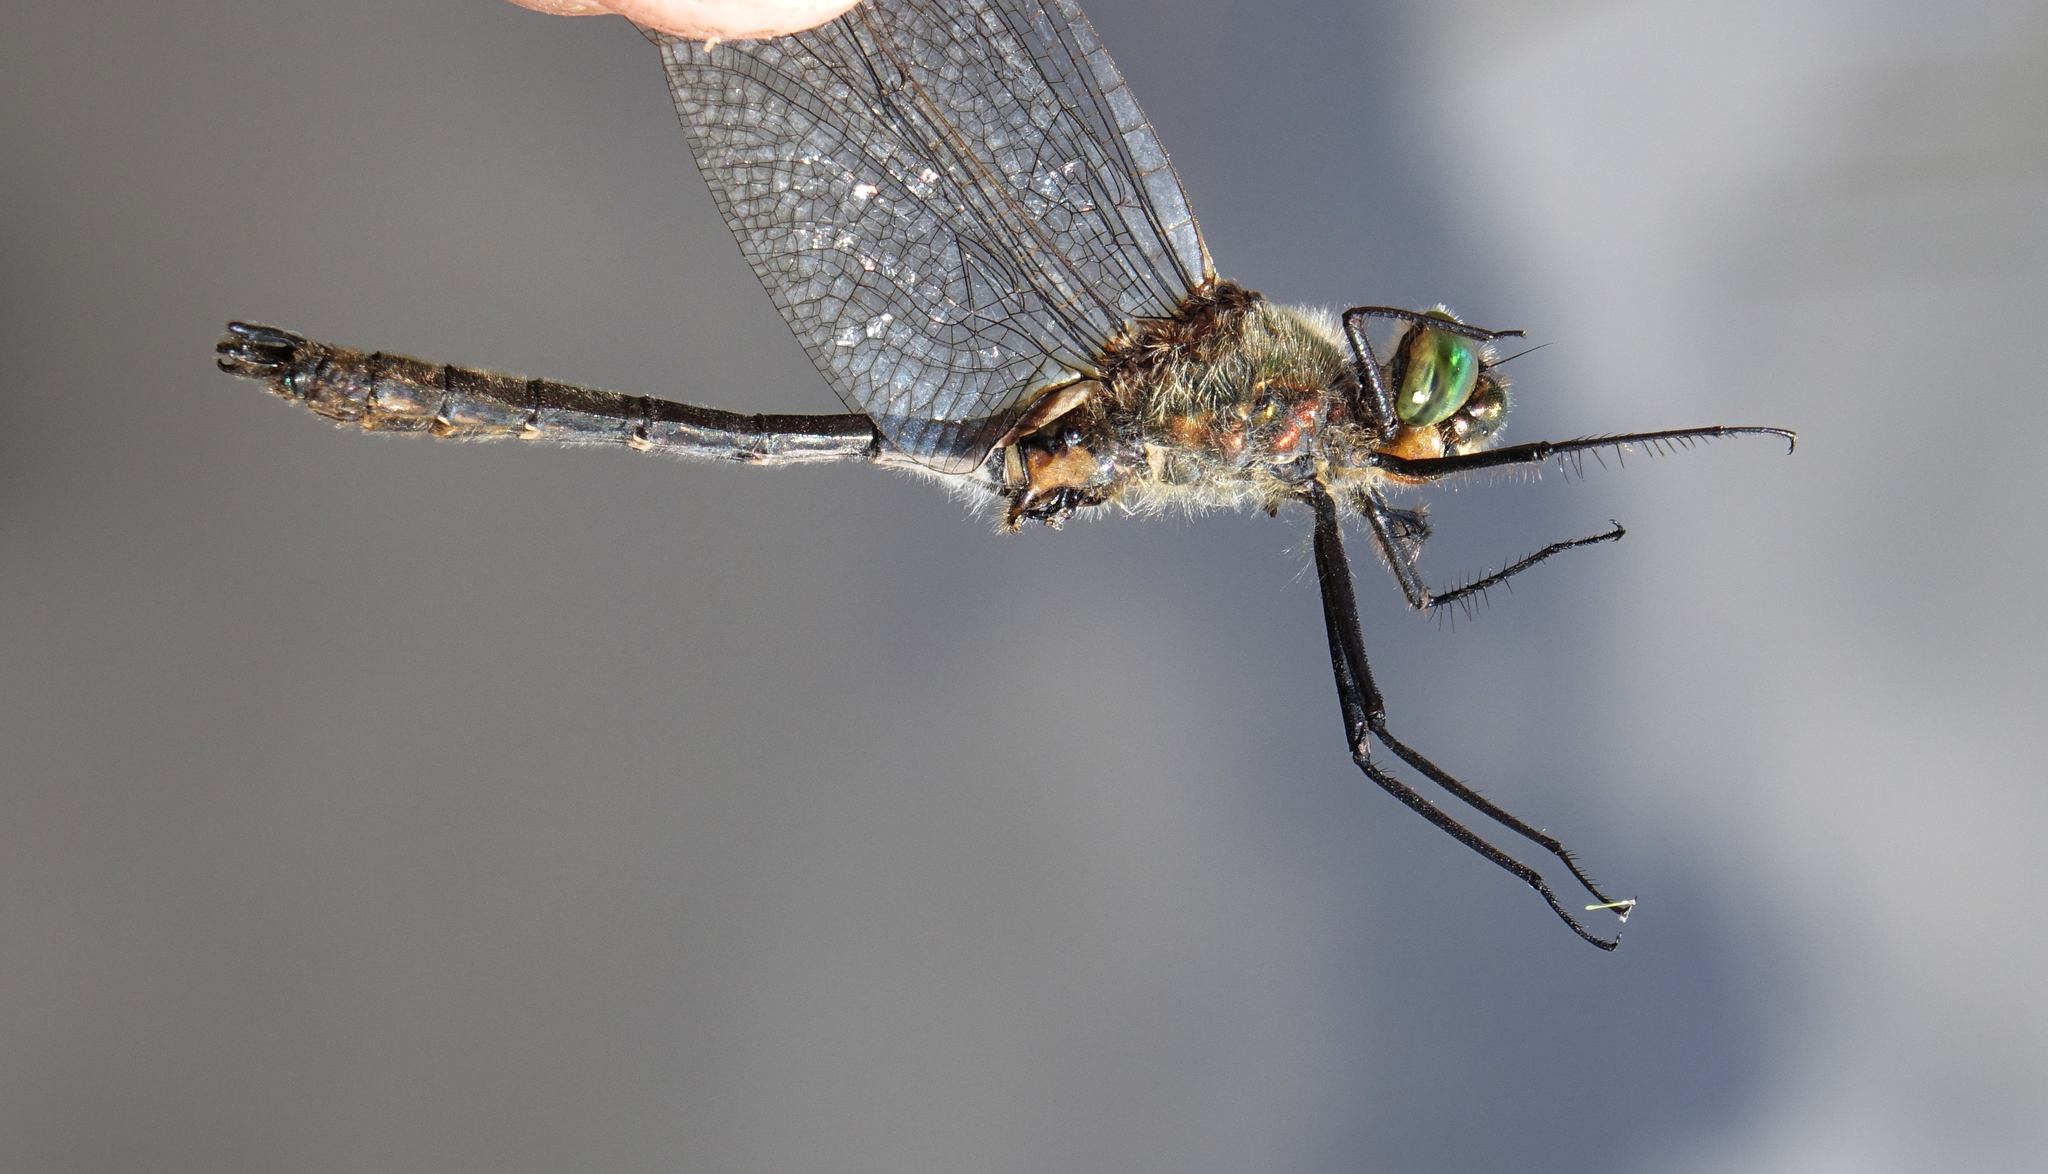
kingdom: Animalia
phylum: Arthropoda
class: Insecta
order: Odonata
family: Corduliidae
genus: Cordulia
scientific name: Cordulia aenea
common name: Downy emerald
